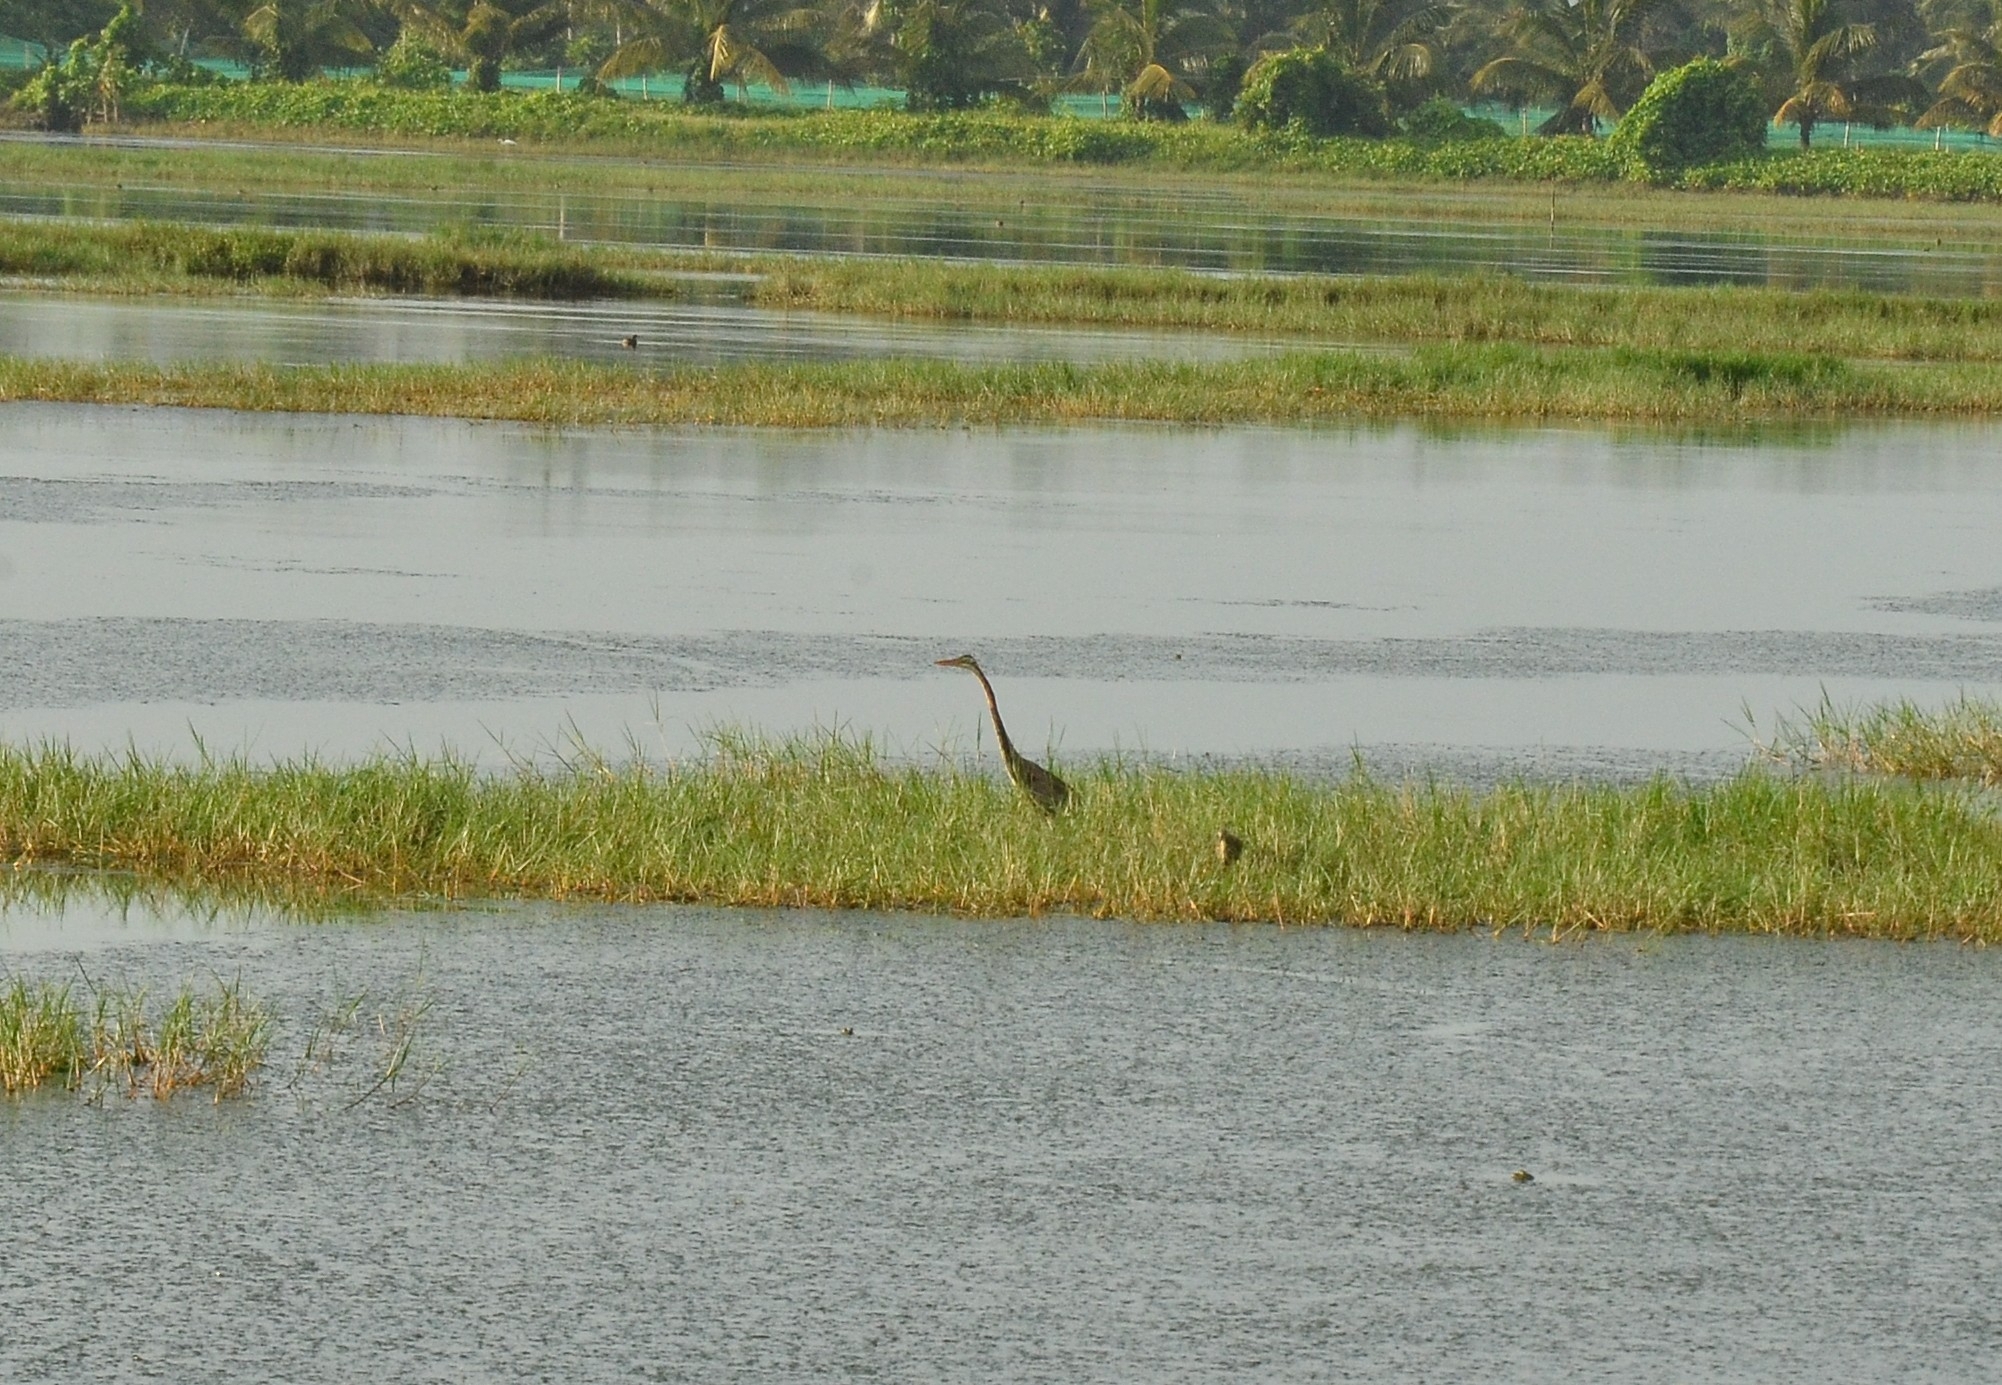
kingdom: Animalia
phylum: Chordata
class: Aves
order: Pelecaniformes
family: Ardeidae
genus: Ardea
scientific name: Ardea purpurea
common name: Purple heron
